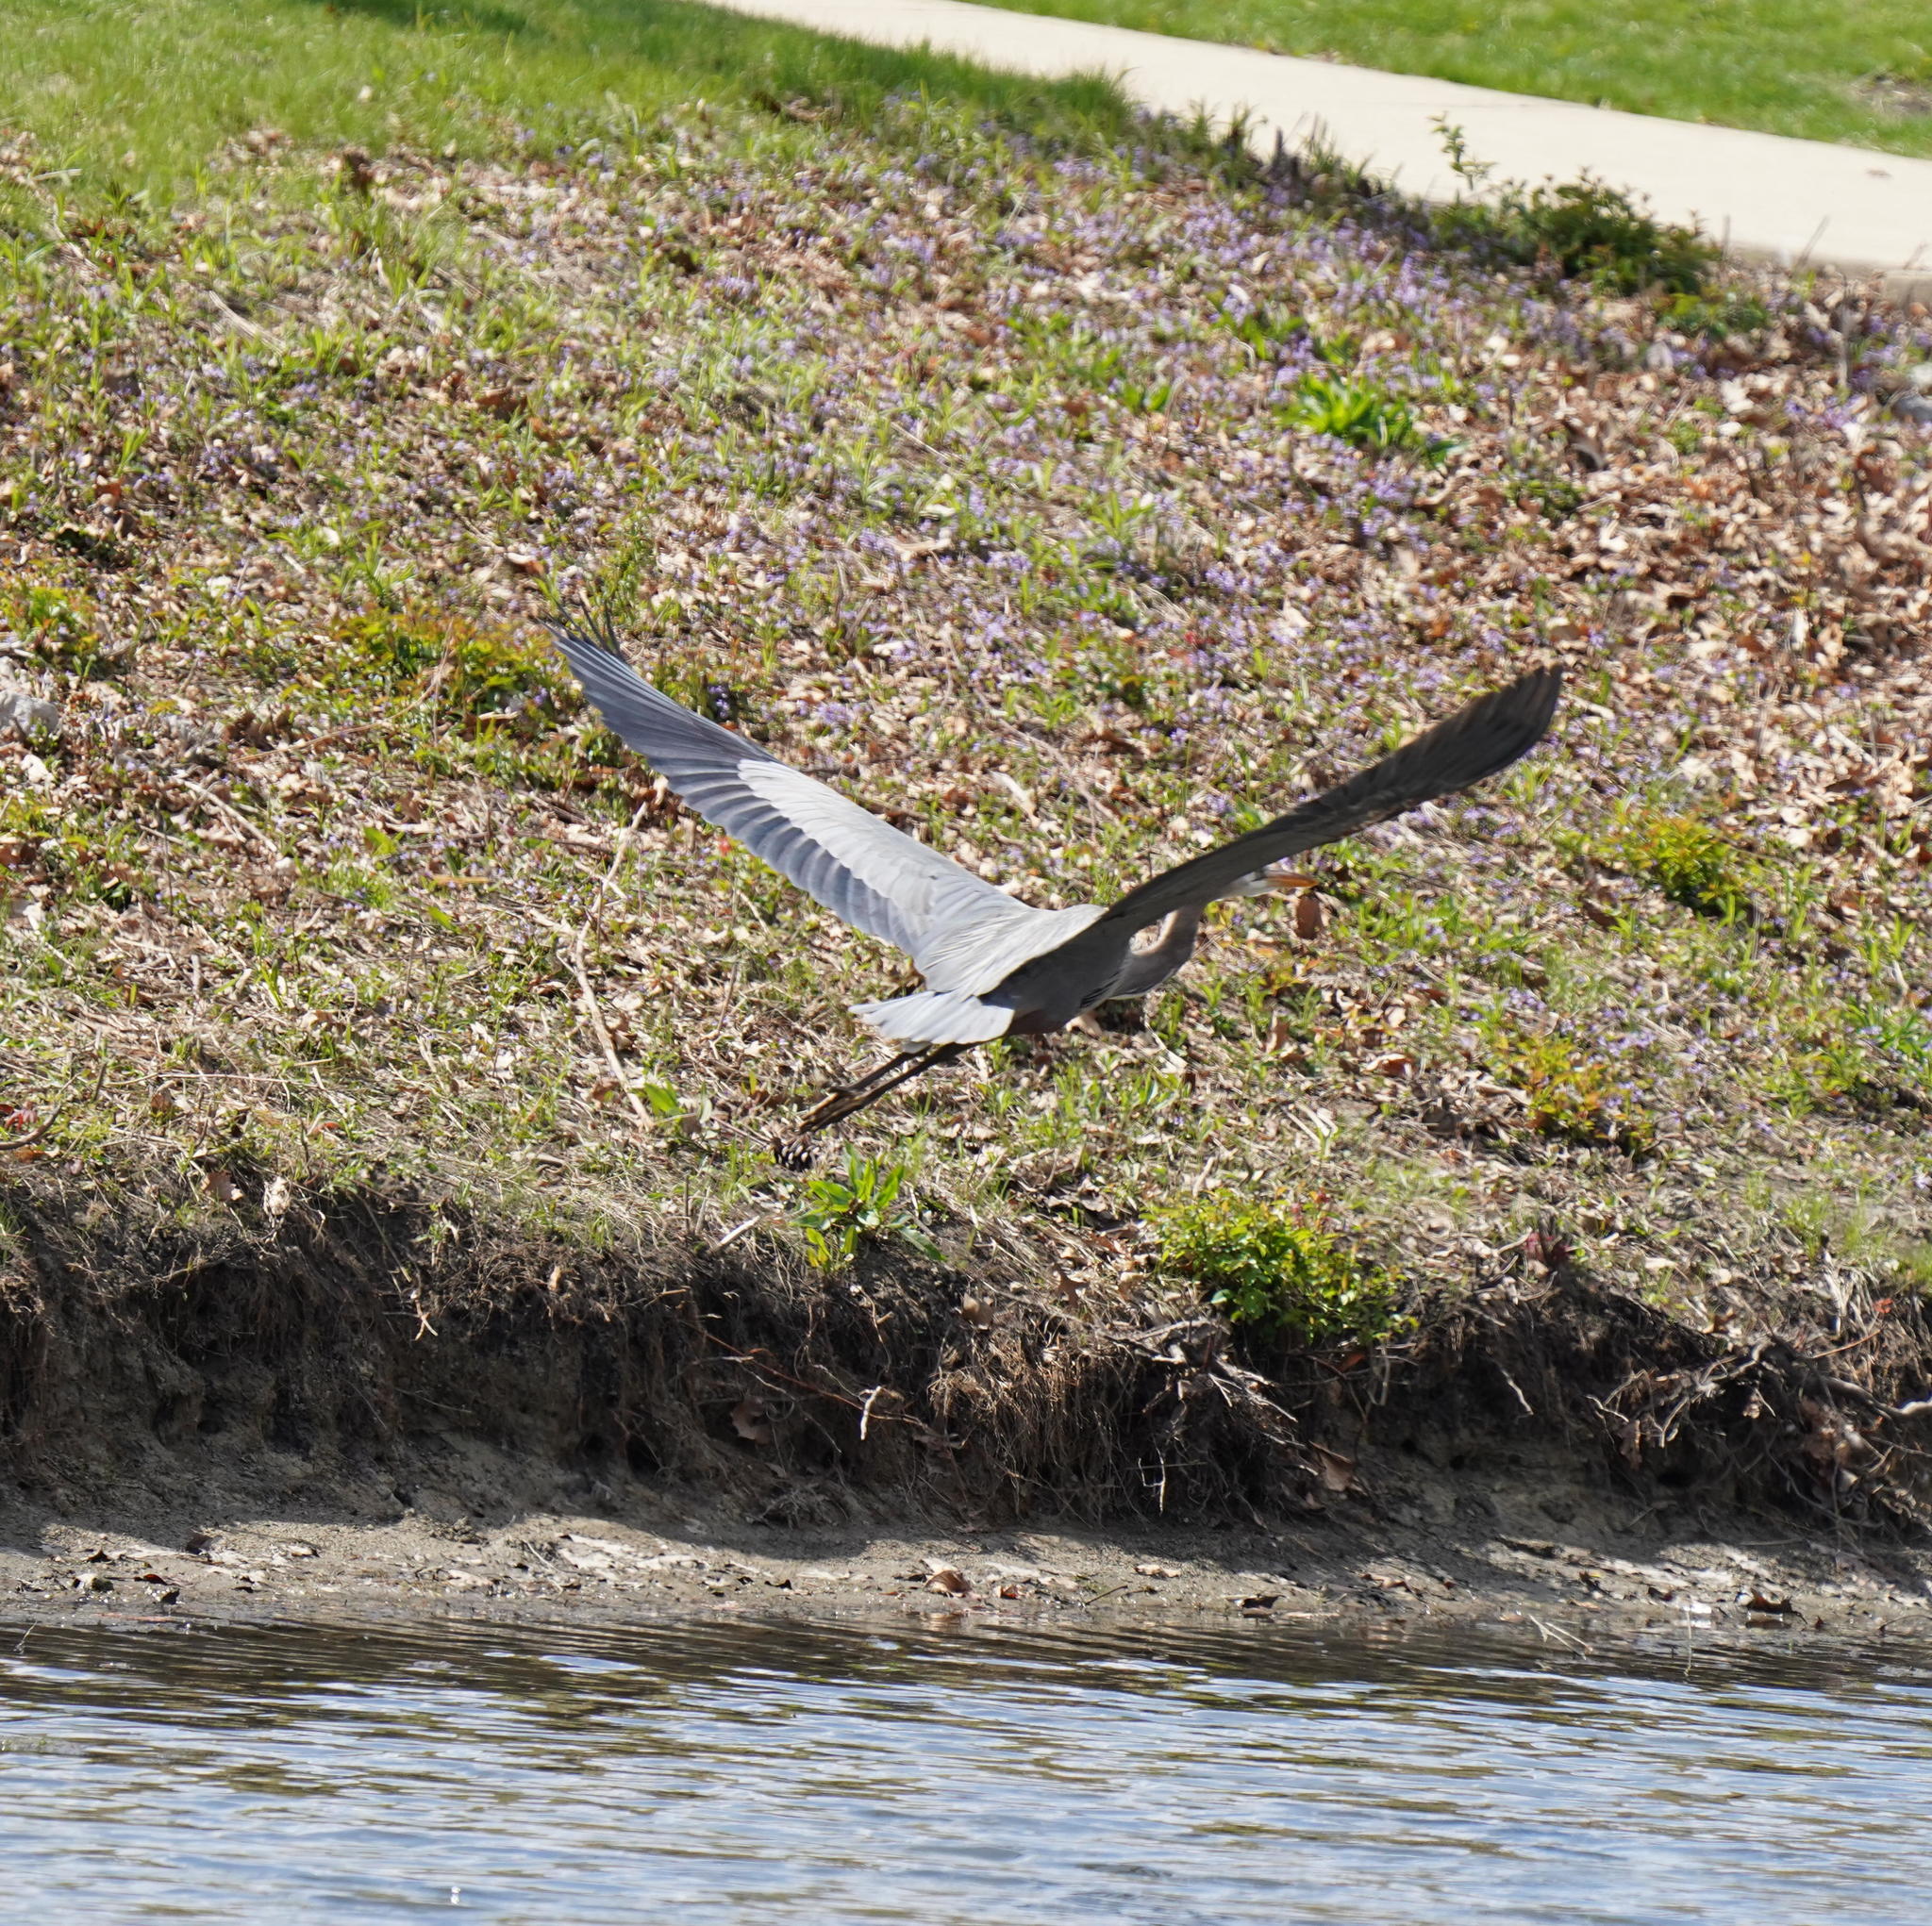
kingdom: Animalia
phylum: Chordata
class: Aves
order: Pelecaniformes
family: Ardeidae
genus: Ardea
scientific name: Ardea herodias
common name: Great blue heron
